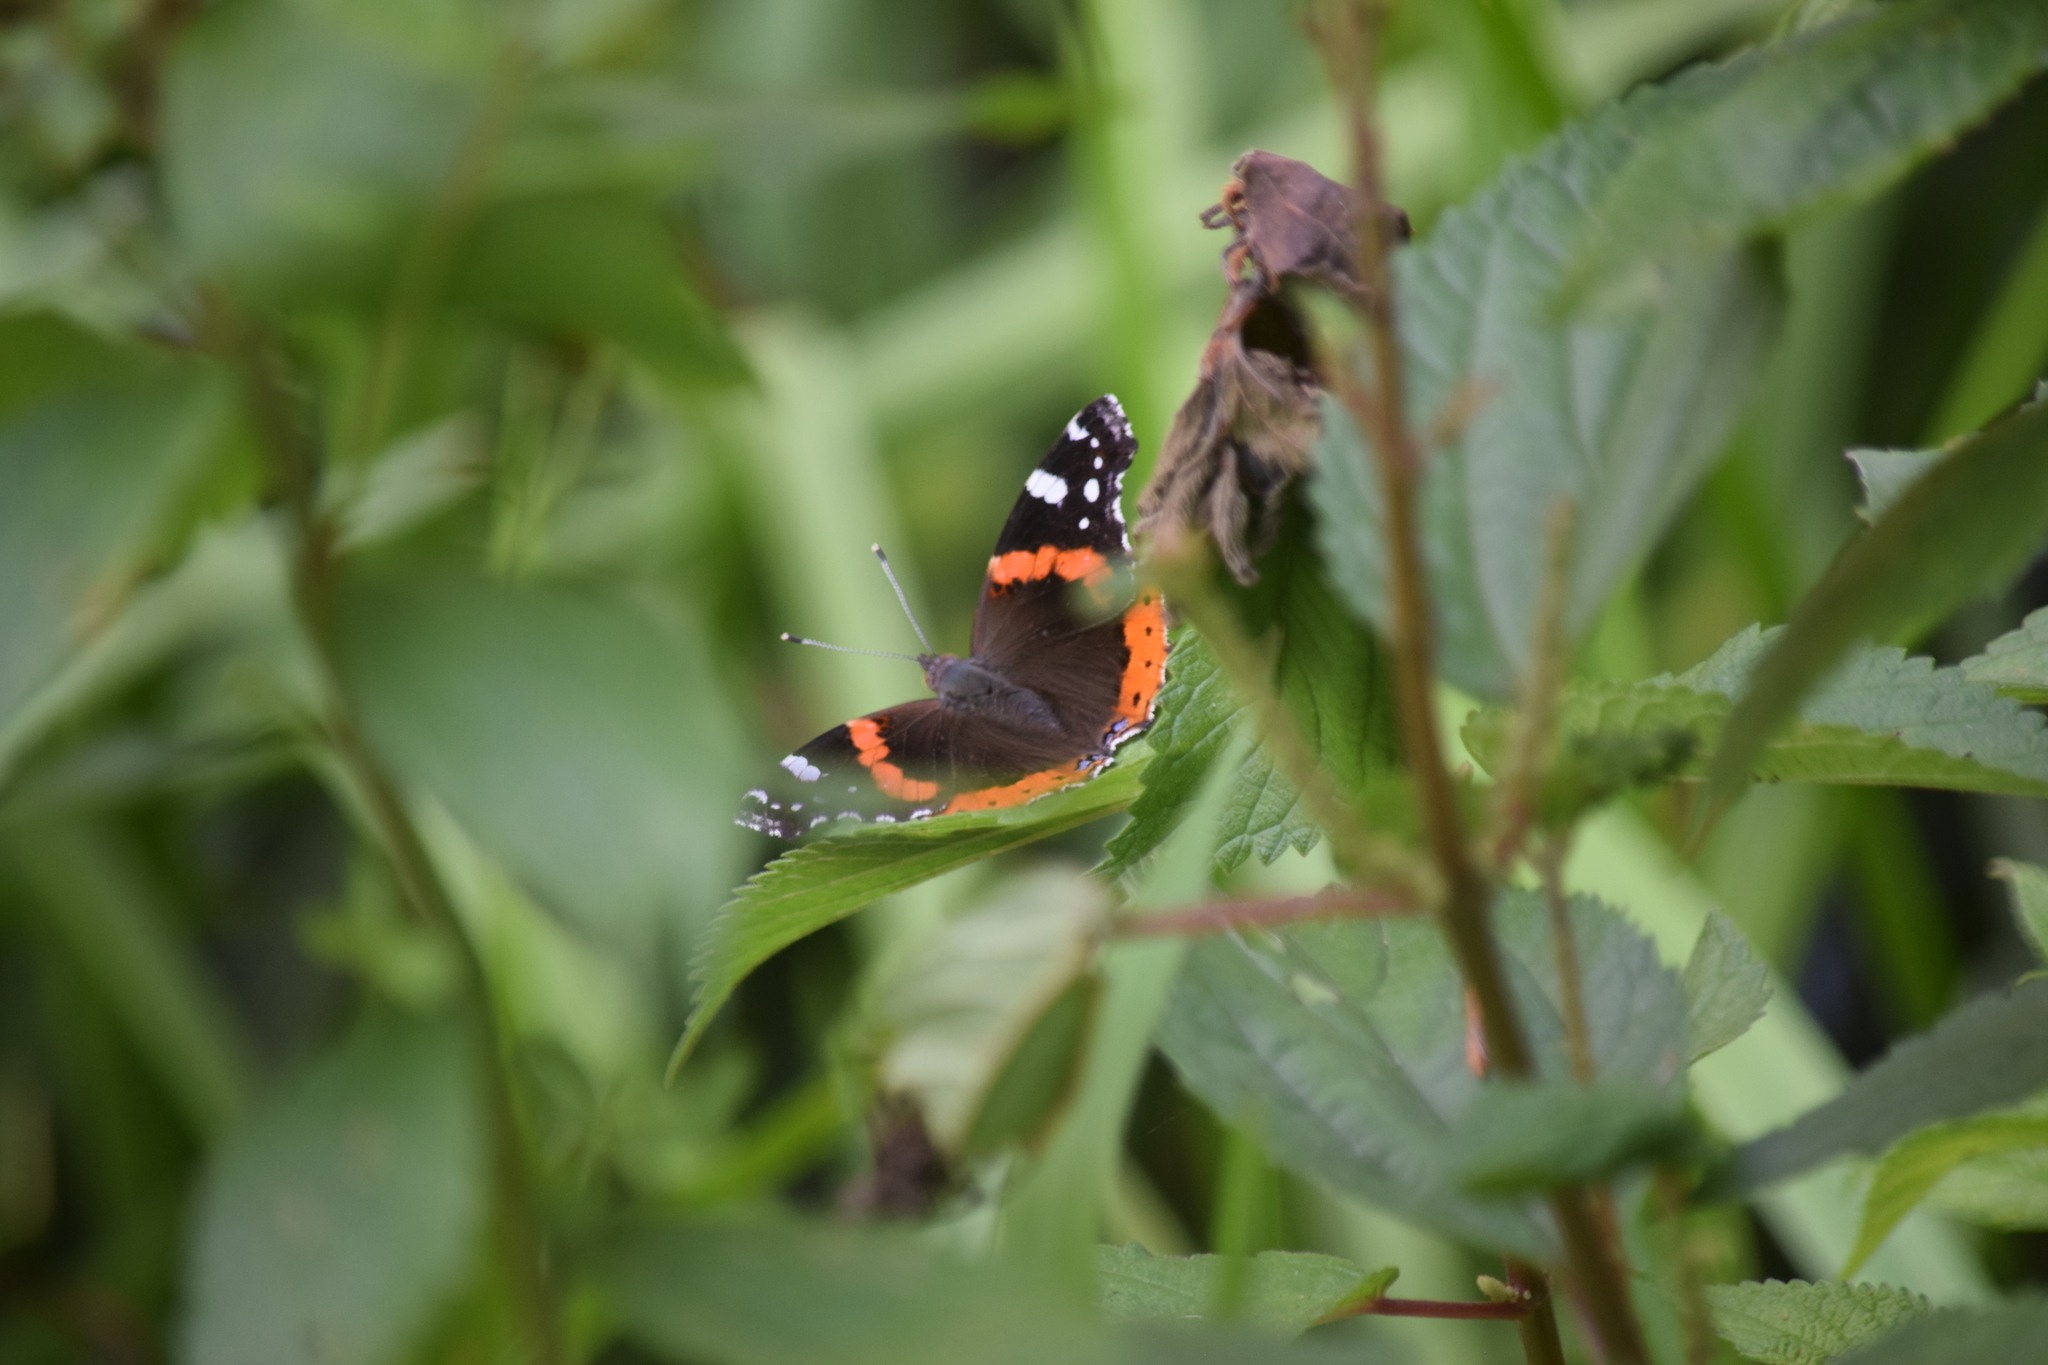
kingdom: Animalia
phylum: Arthropoda
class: Insecta
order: Lepidoptera
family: Nymphalidae
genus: Vanessa
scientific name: Vanessa atalanta
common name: Red admiral
